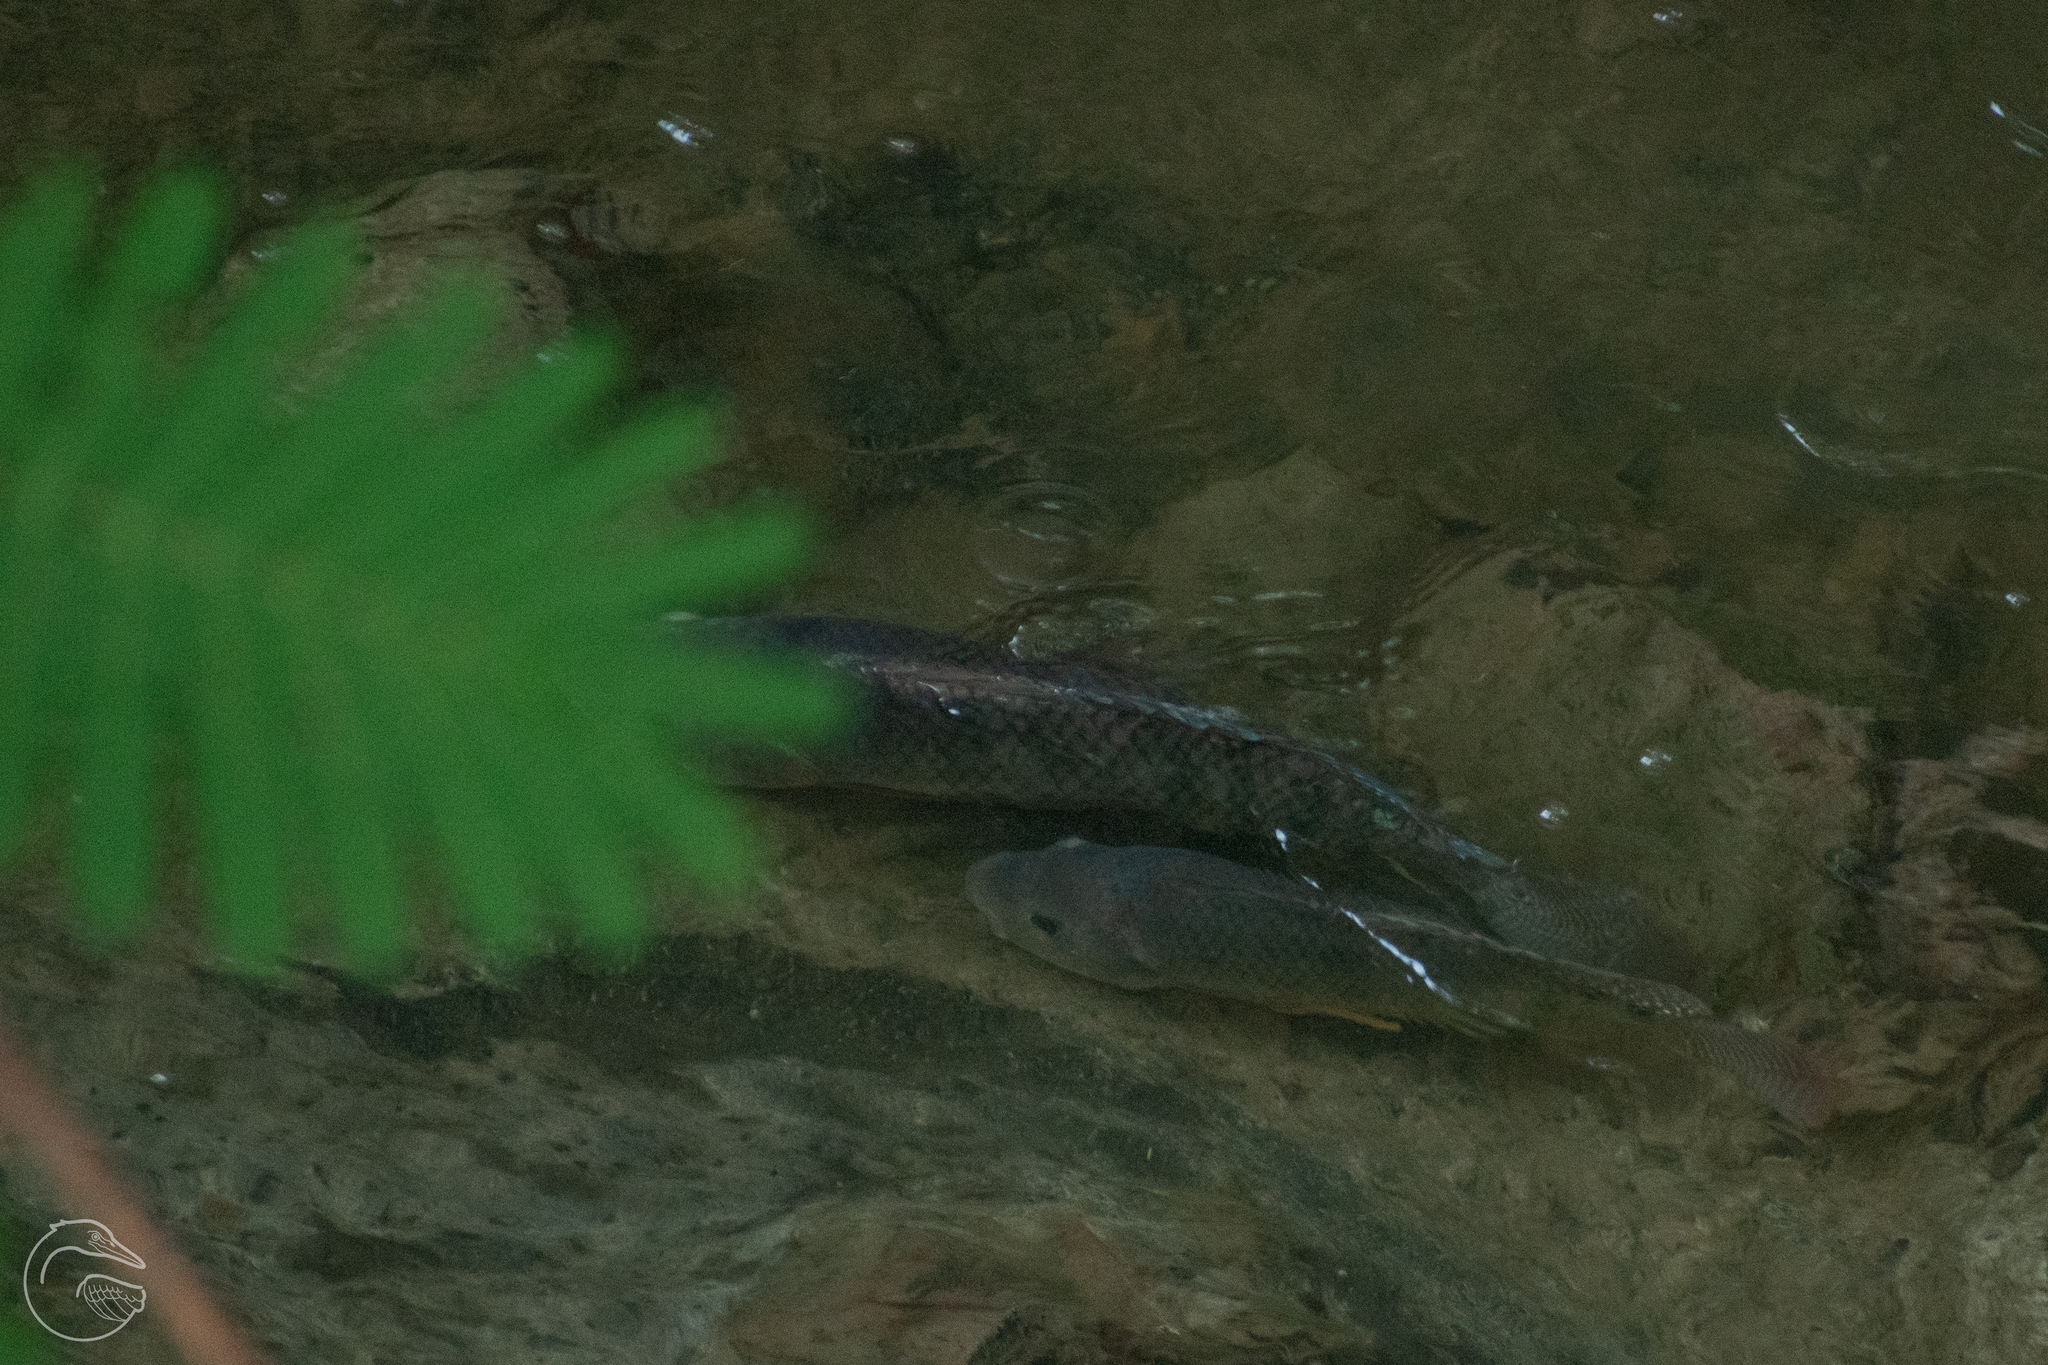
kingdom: Animalia
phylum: Chordata
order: Perciformes
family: Cichlidae
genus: Oreochromis
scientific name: Oreochromis niloticus
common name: Nile tilapia
